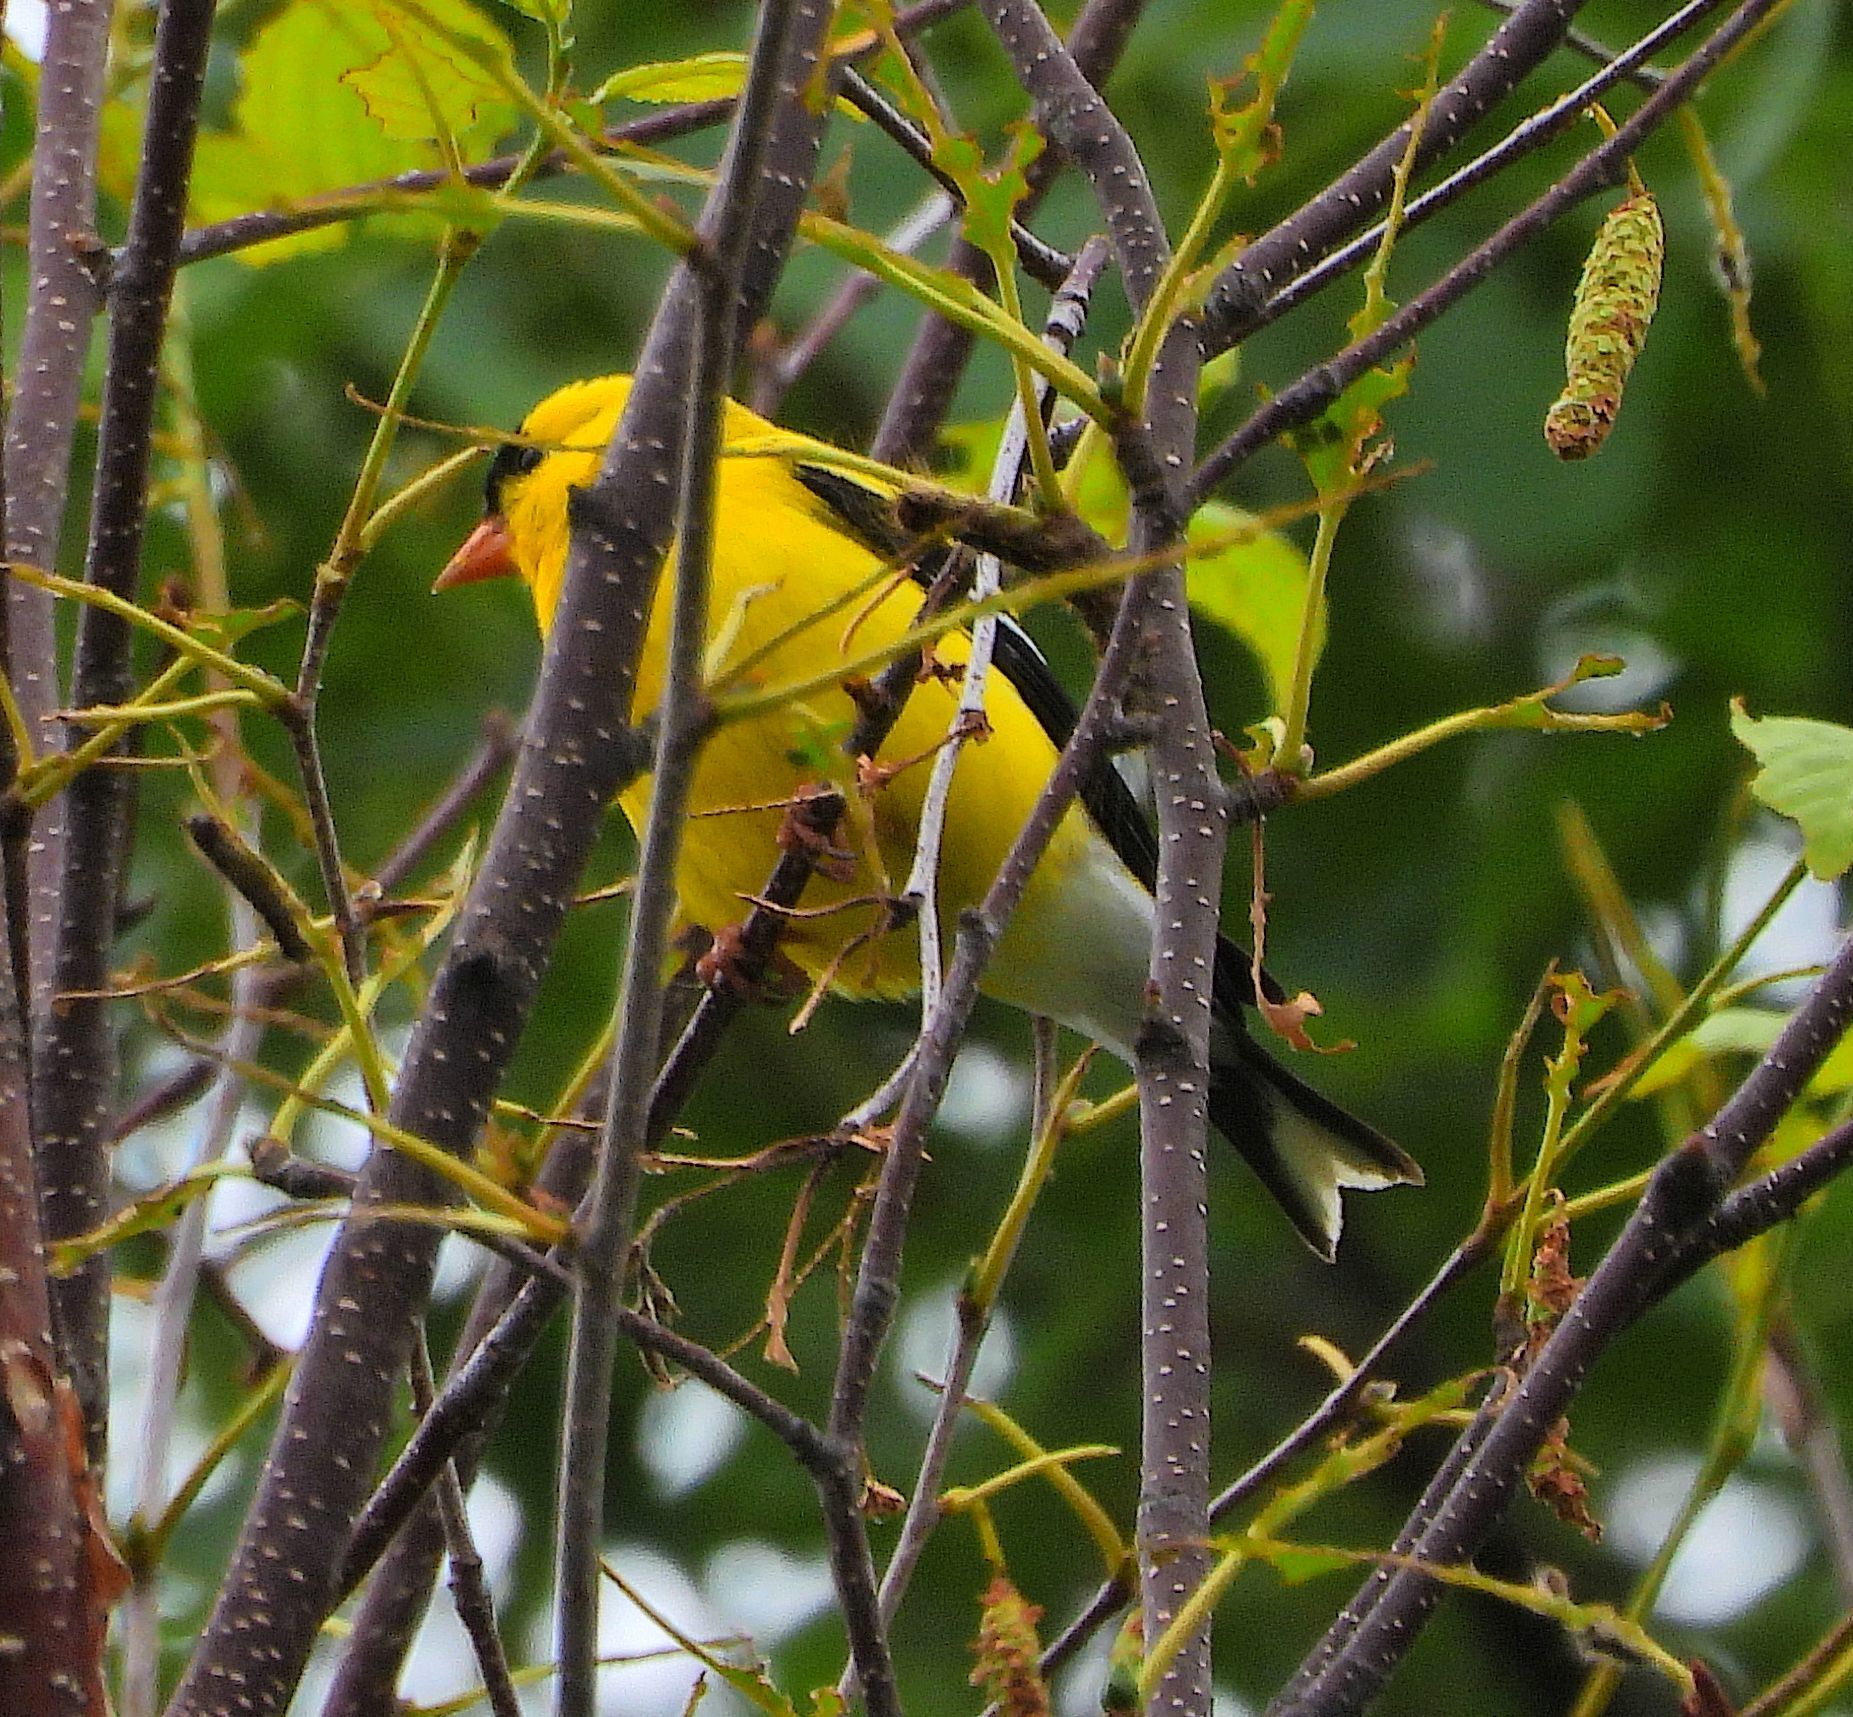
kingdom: Animalia
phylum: Chordata
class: Aves
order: Passeriformes
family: Fringillidae
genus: Spinus
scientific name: Spinus tristis
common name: American goldfinch
